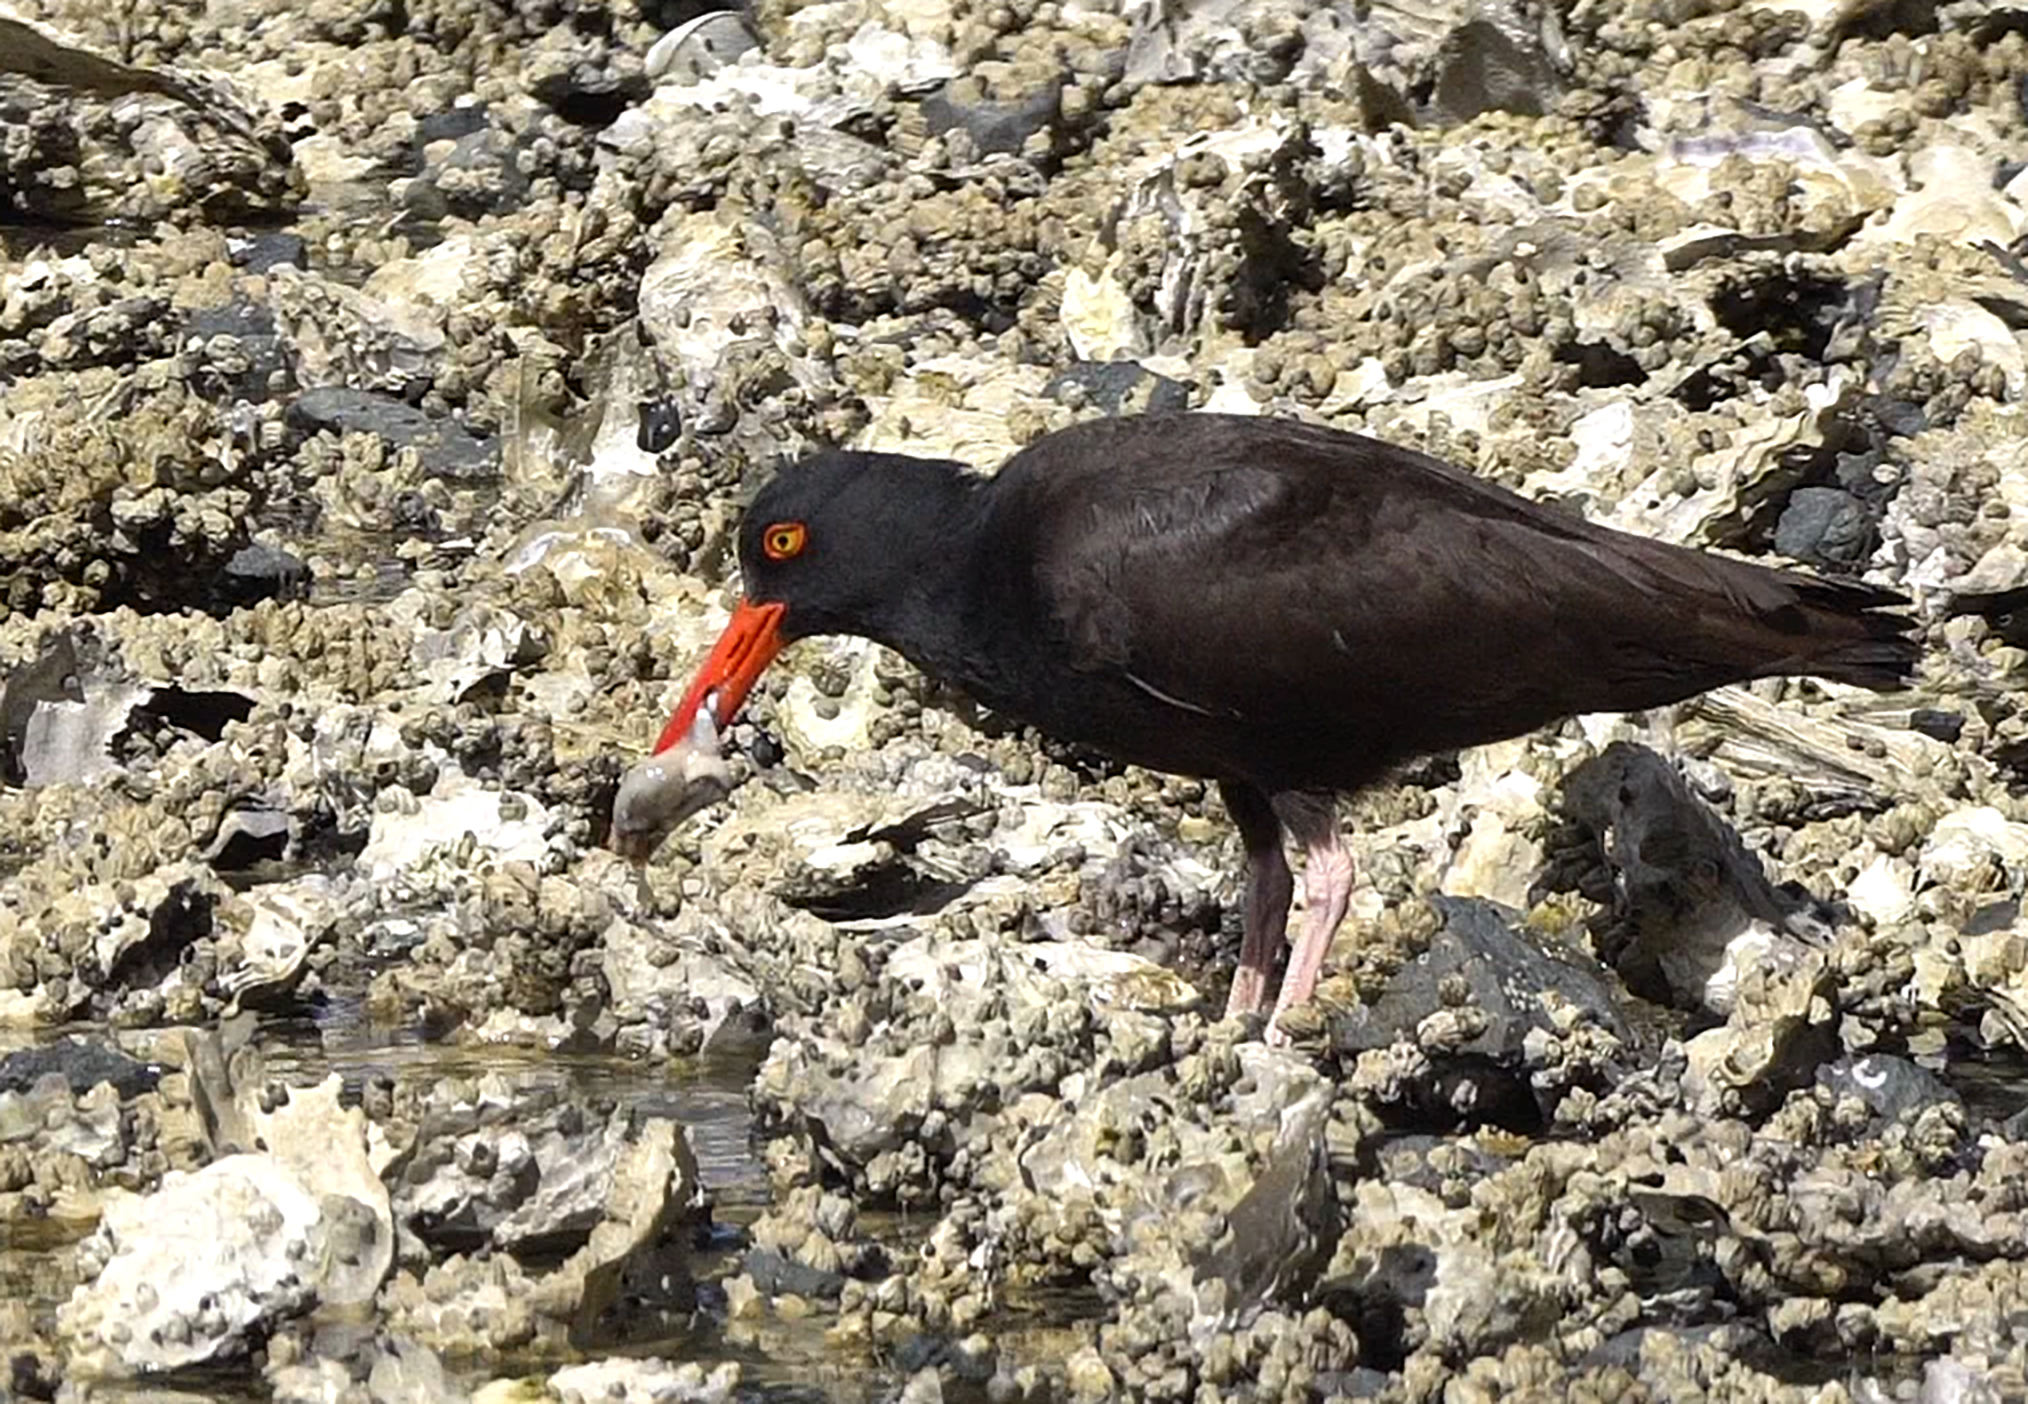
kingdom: Animalia
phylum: Chordata
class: Aves
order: Charadriiformes
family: Haematopodidae
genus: Haematopus
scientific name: Haematopus bachmani
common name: Black oystercatcher
